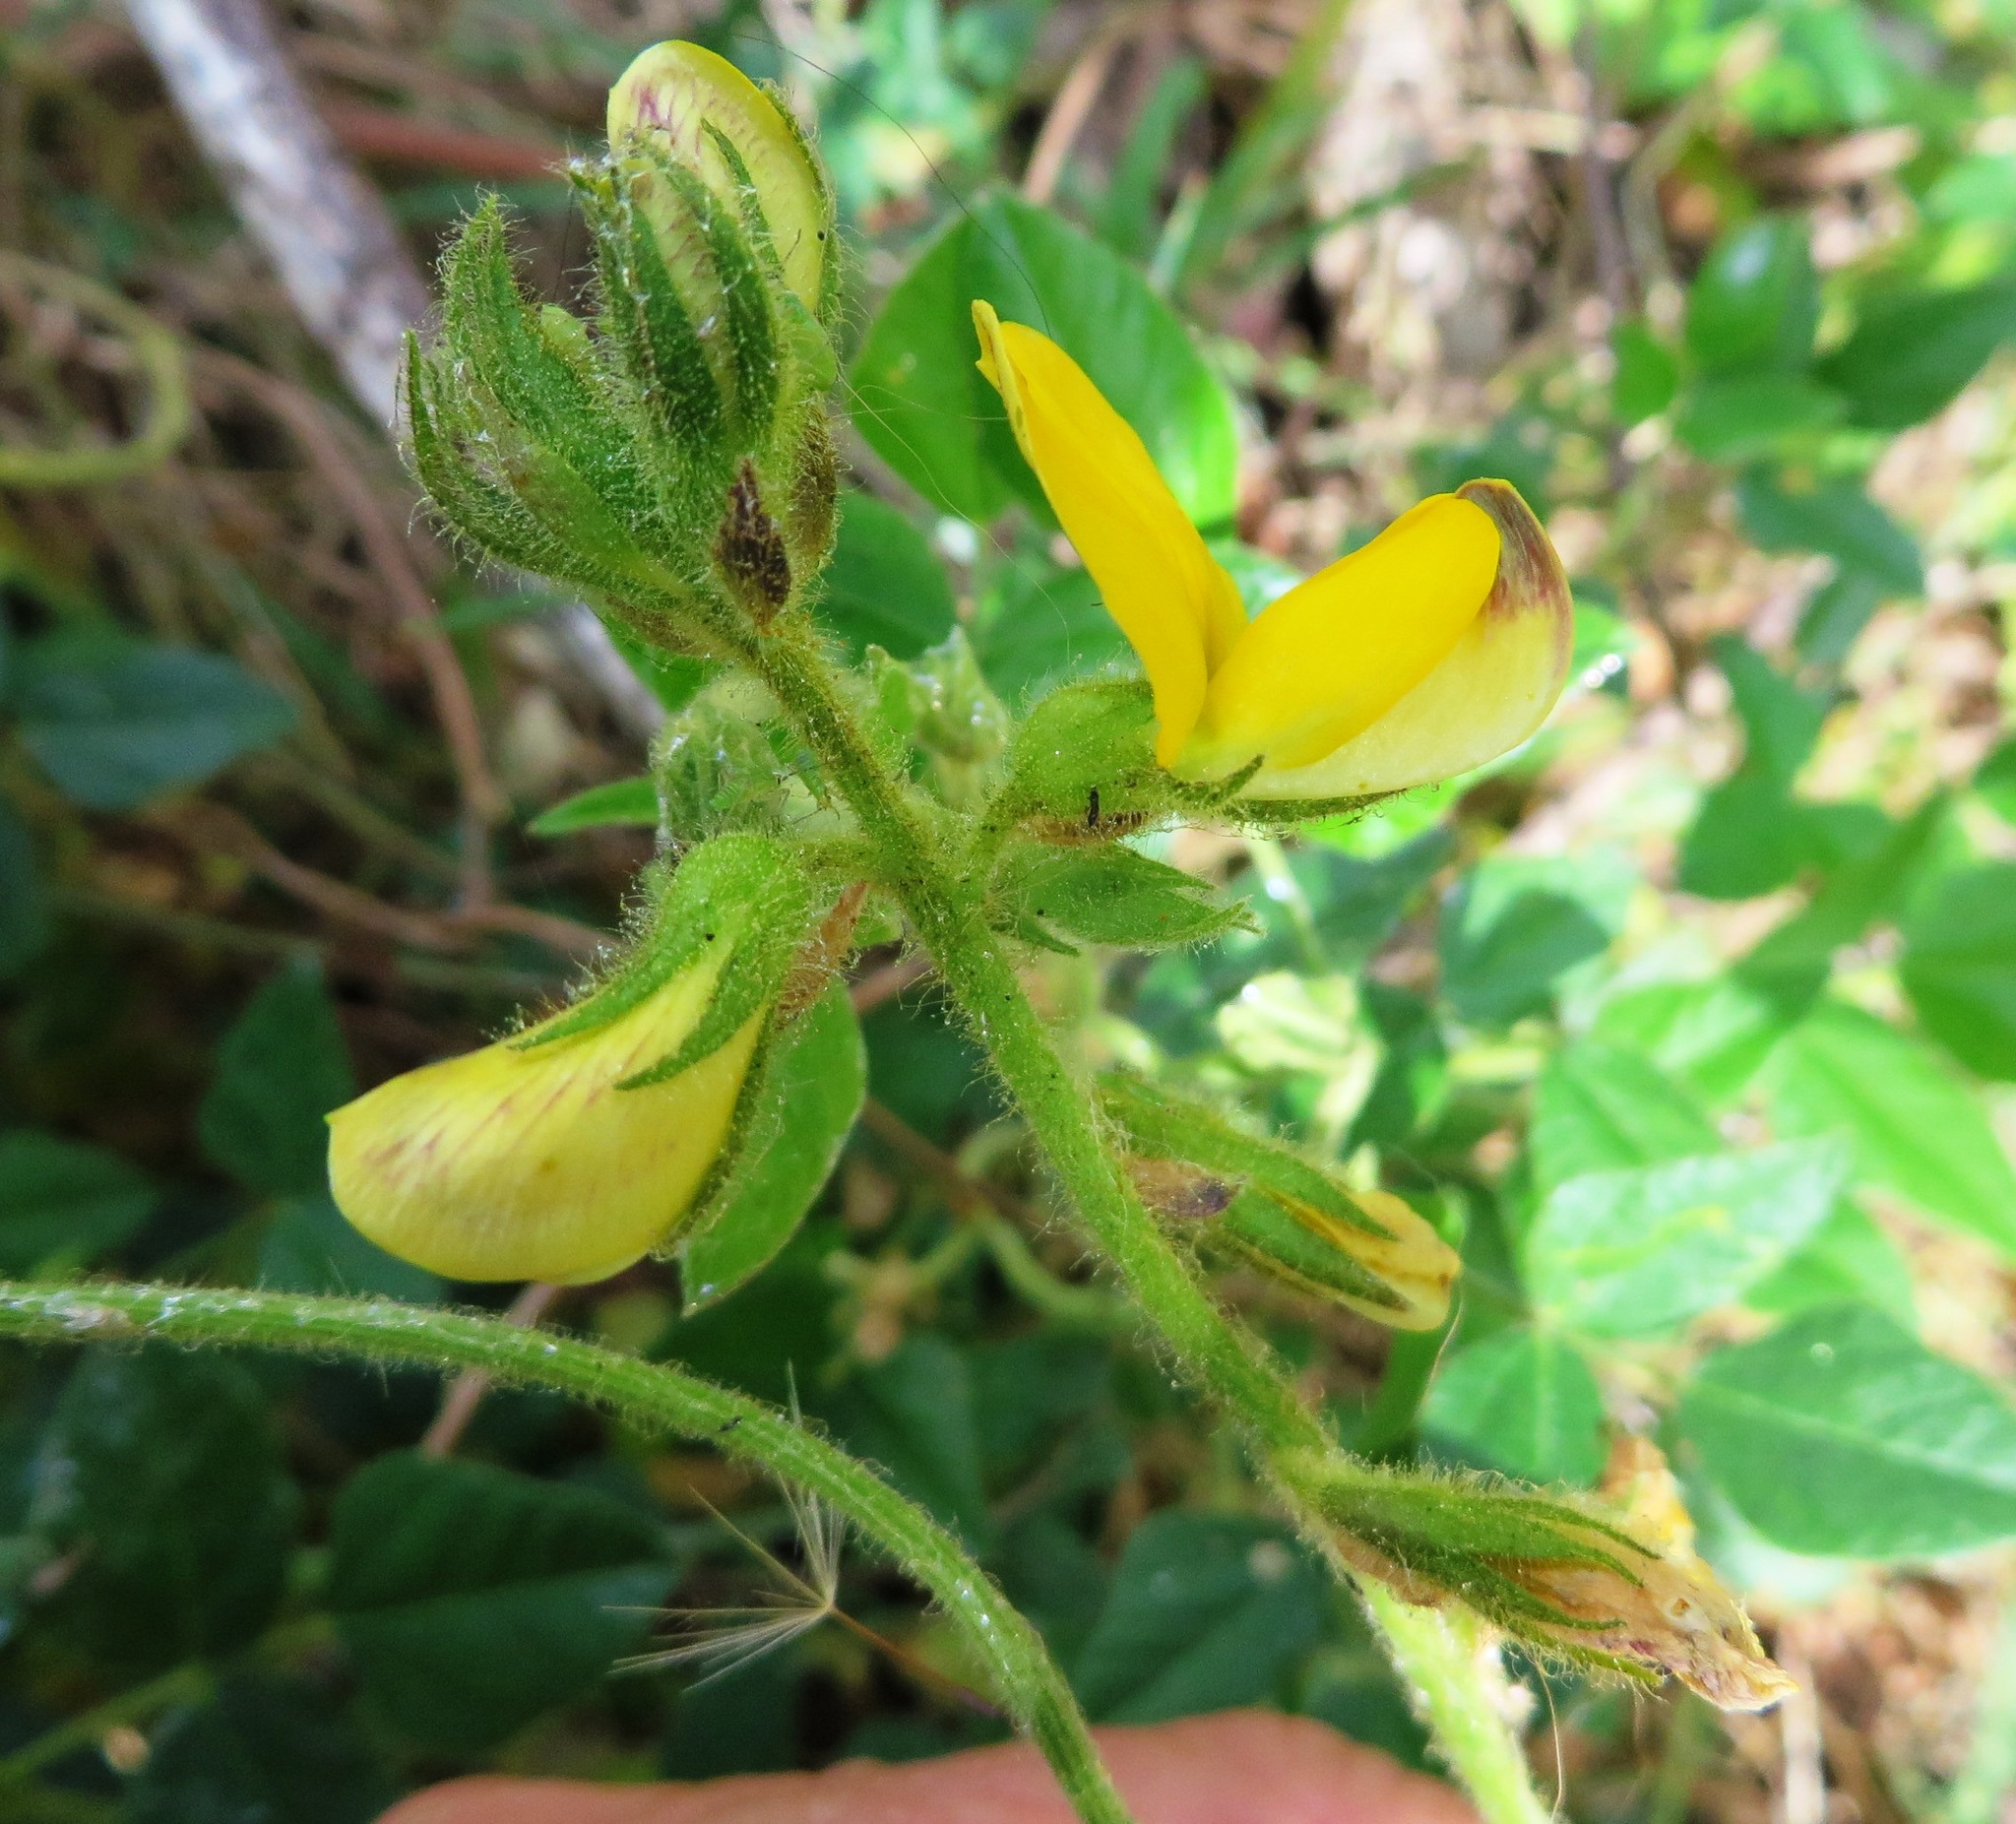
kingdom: Plantae
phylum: Tracheophyta
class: Magnoliopsida
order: Fabales
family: Fabaceae
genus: Bolusafra
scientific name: Bolusafra bituminosa
